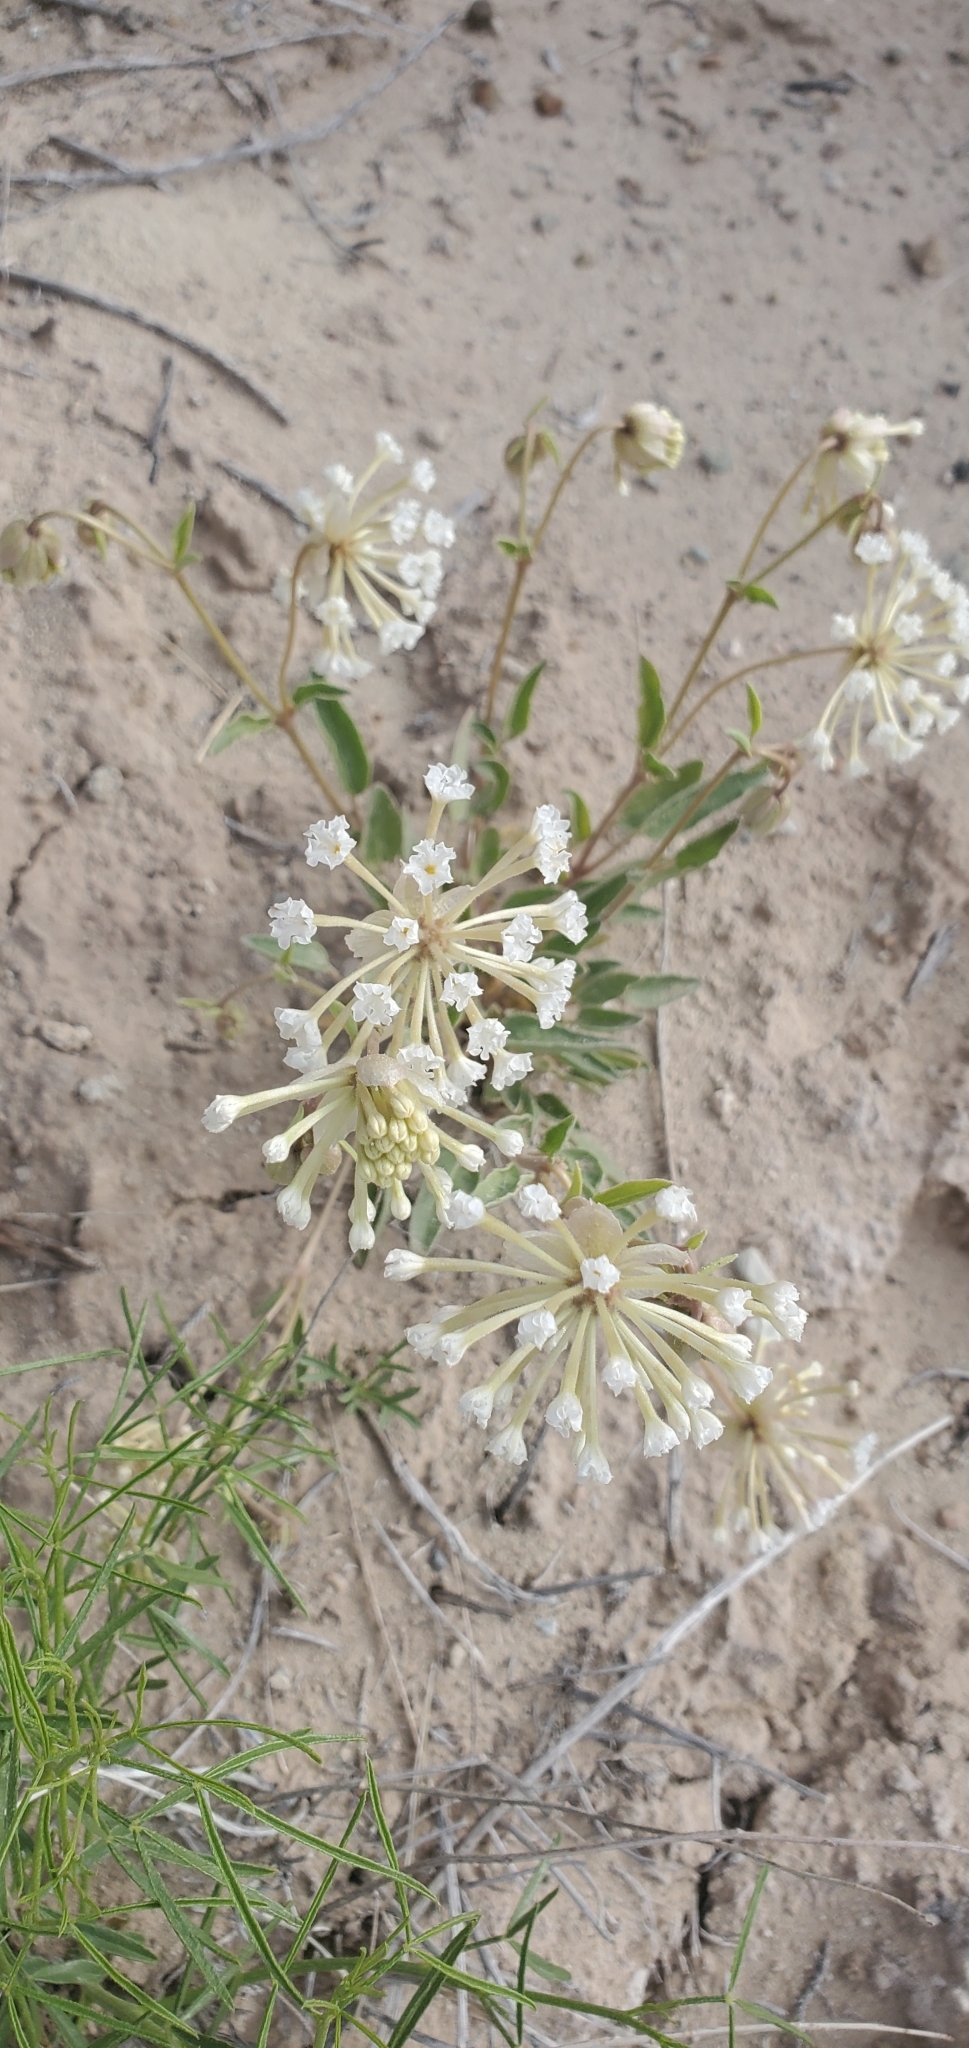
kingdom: Plantae
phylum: Tracheophyta
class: Magnoliopsida
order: Caryophyllales
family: Nyctaginaceae
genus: Abronia
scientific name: Abronia elliptica
